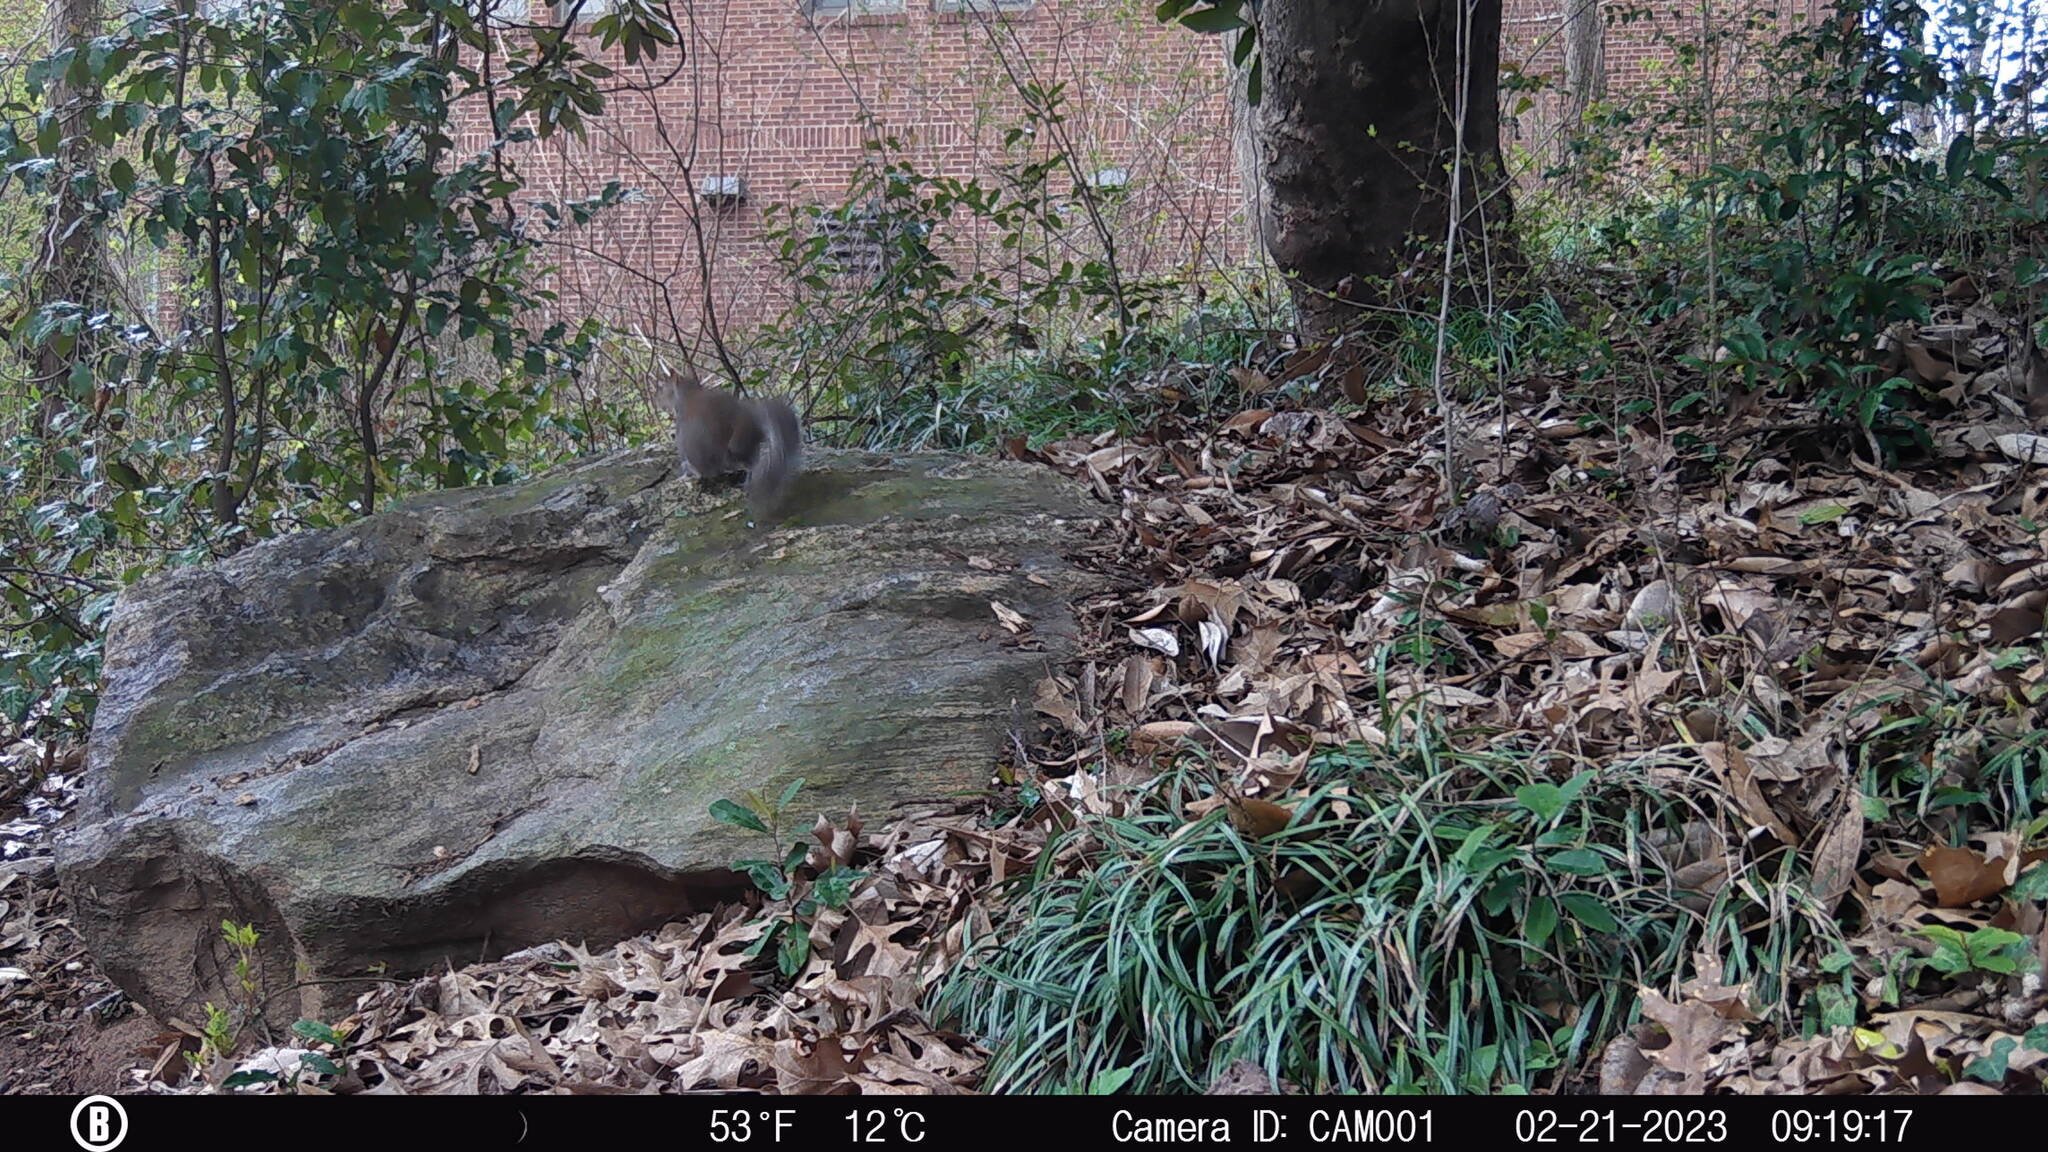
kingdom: Animalia
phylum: Chordata
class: Mammalia
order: Rodentia
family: Sciuridae
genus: Sciurus
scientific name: Sciurus carolinensis
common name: Eastern gray squirrel
